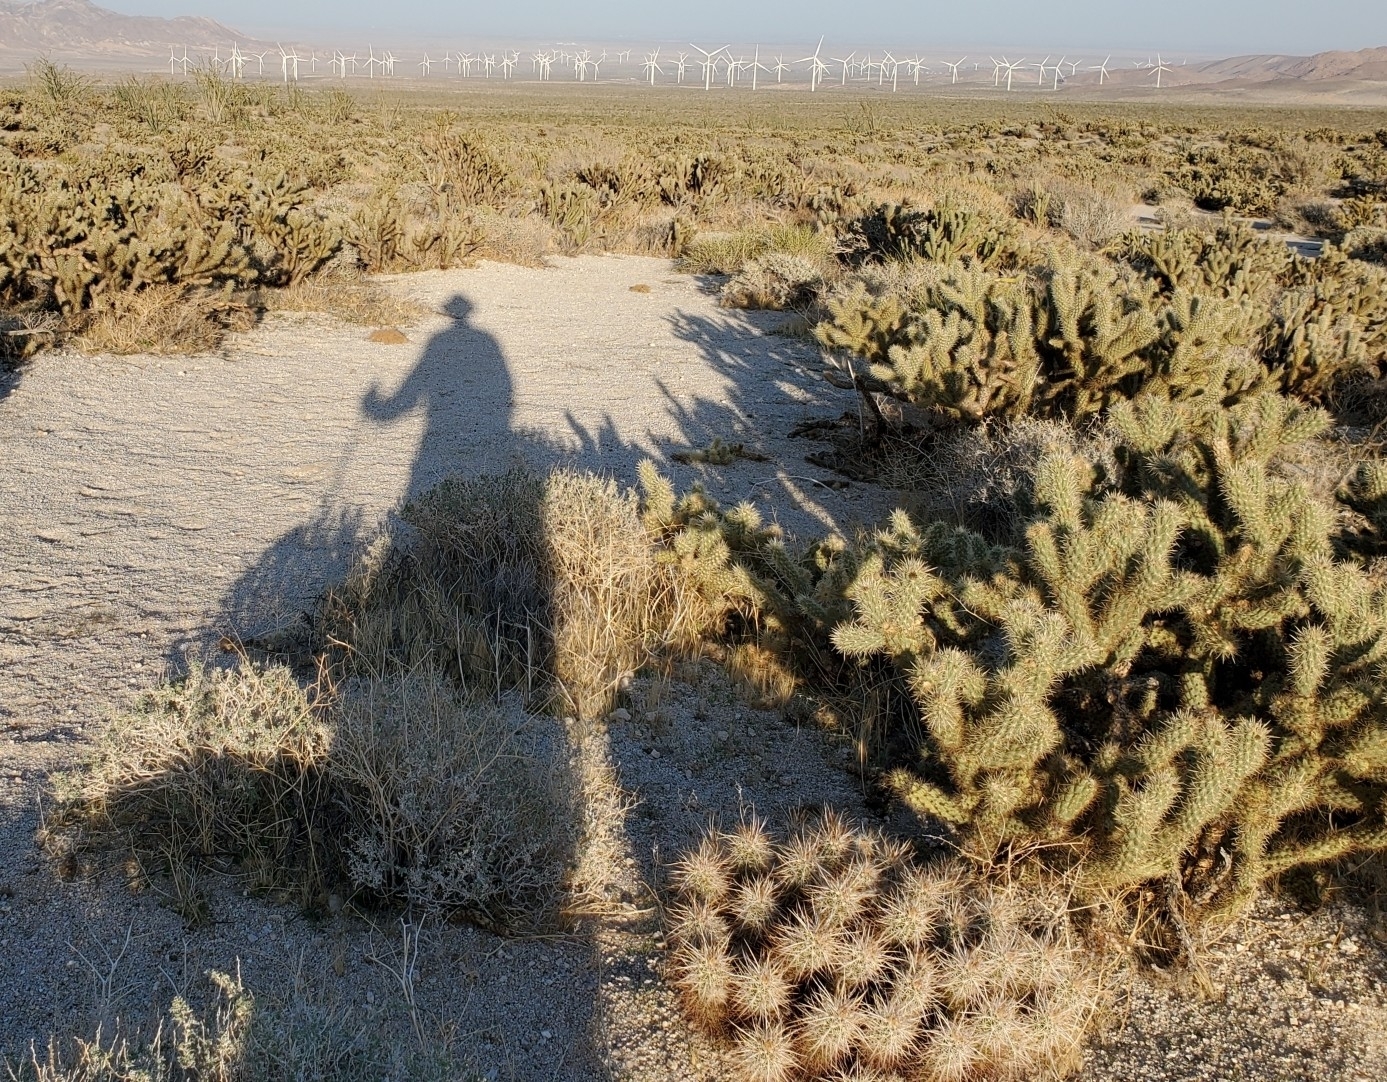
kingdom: Plantae
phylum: Tracheophyta
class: Magnoliopsida
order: Caryophyllales
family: Cactaceae
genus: Echinocereus
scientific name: Echinocereus engelmannii
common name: Engelmann's hedgehog cactus
